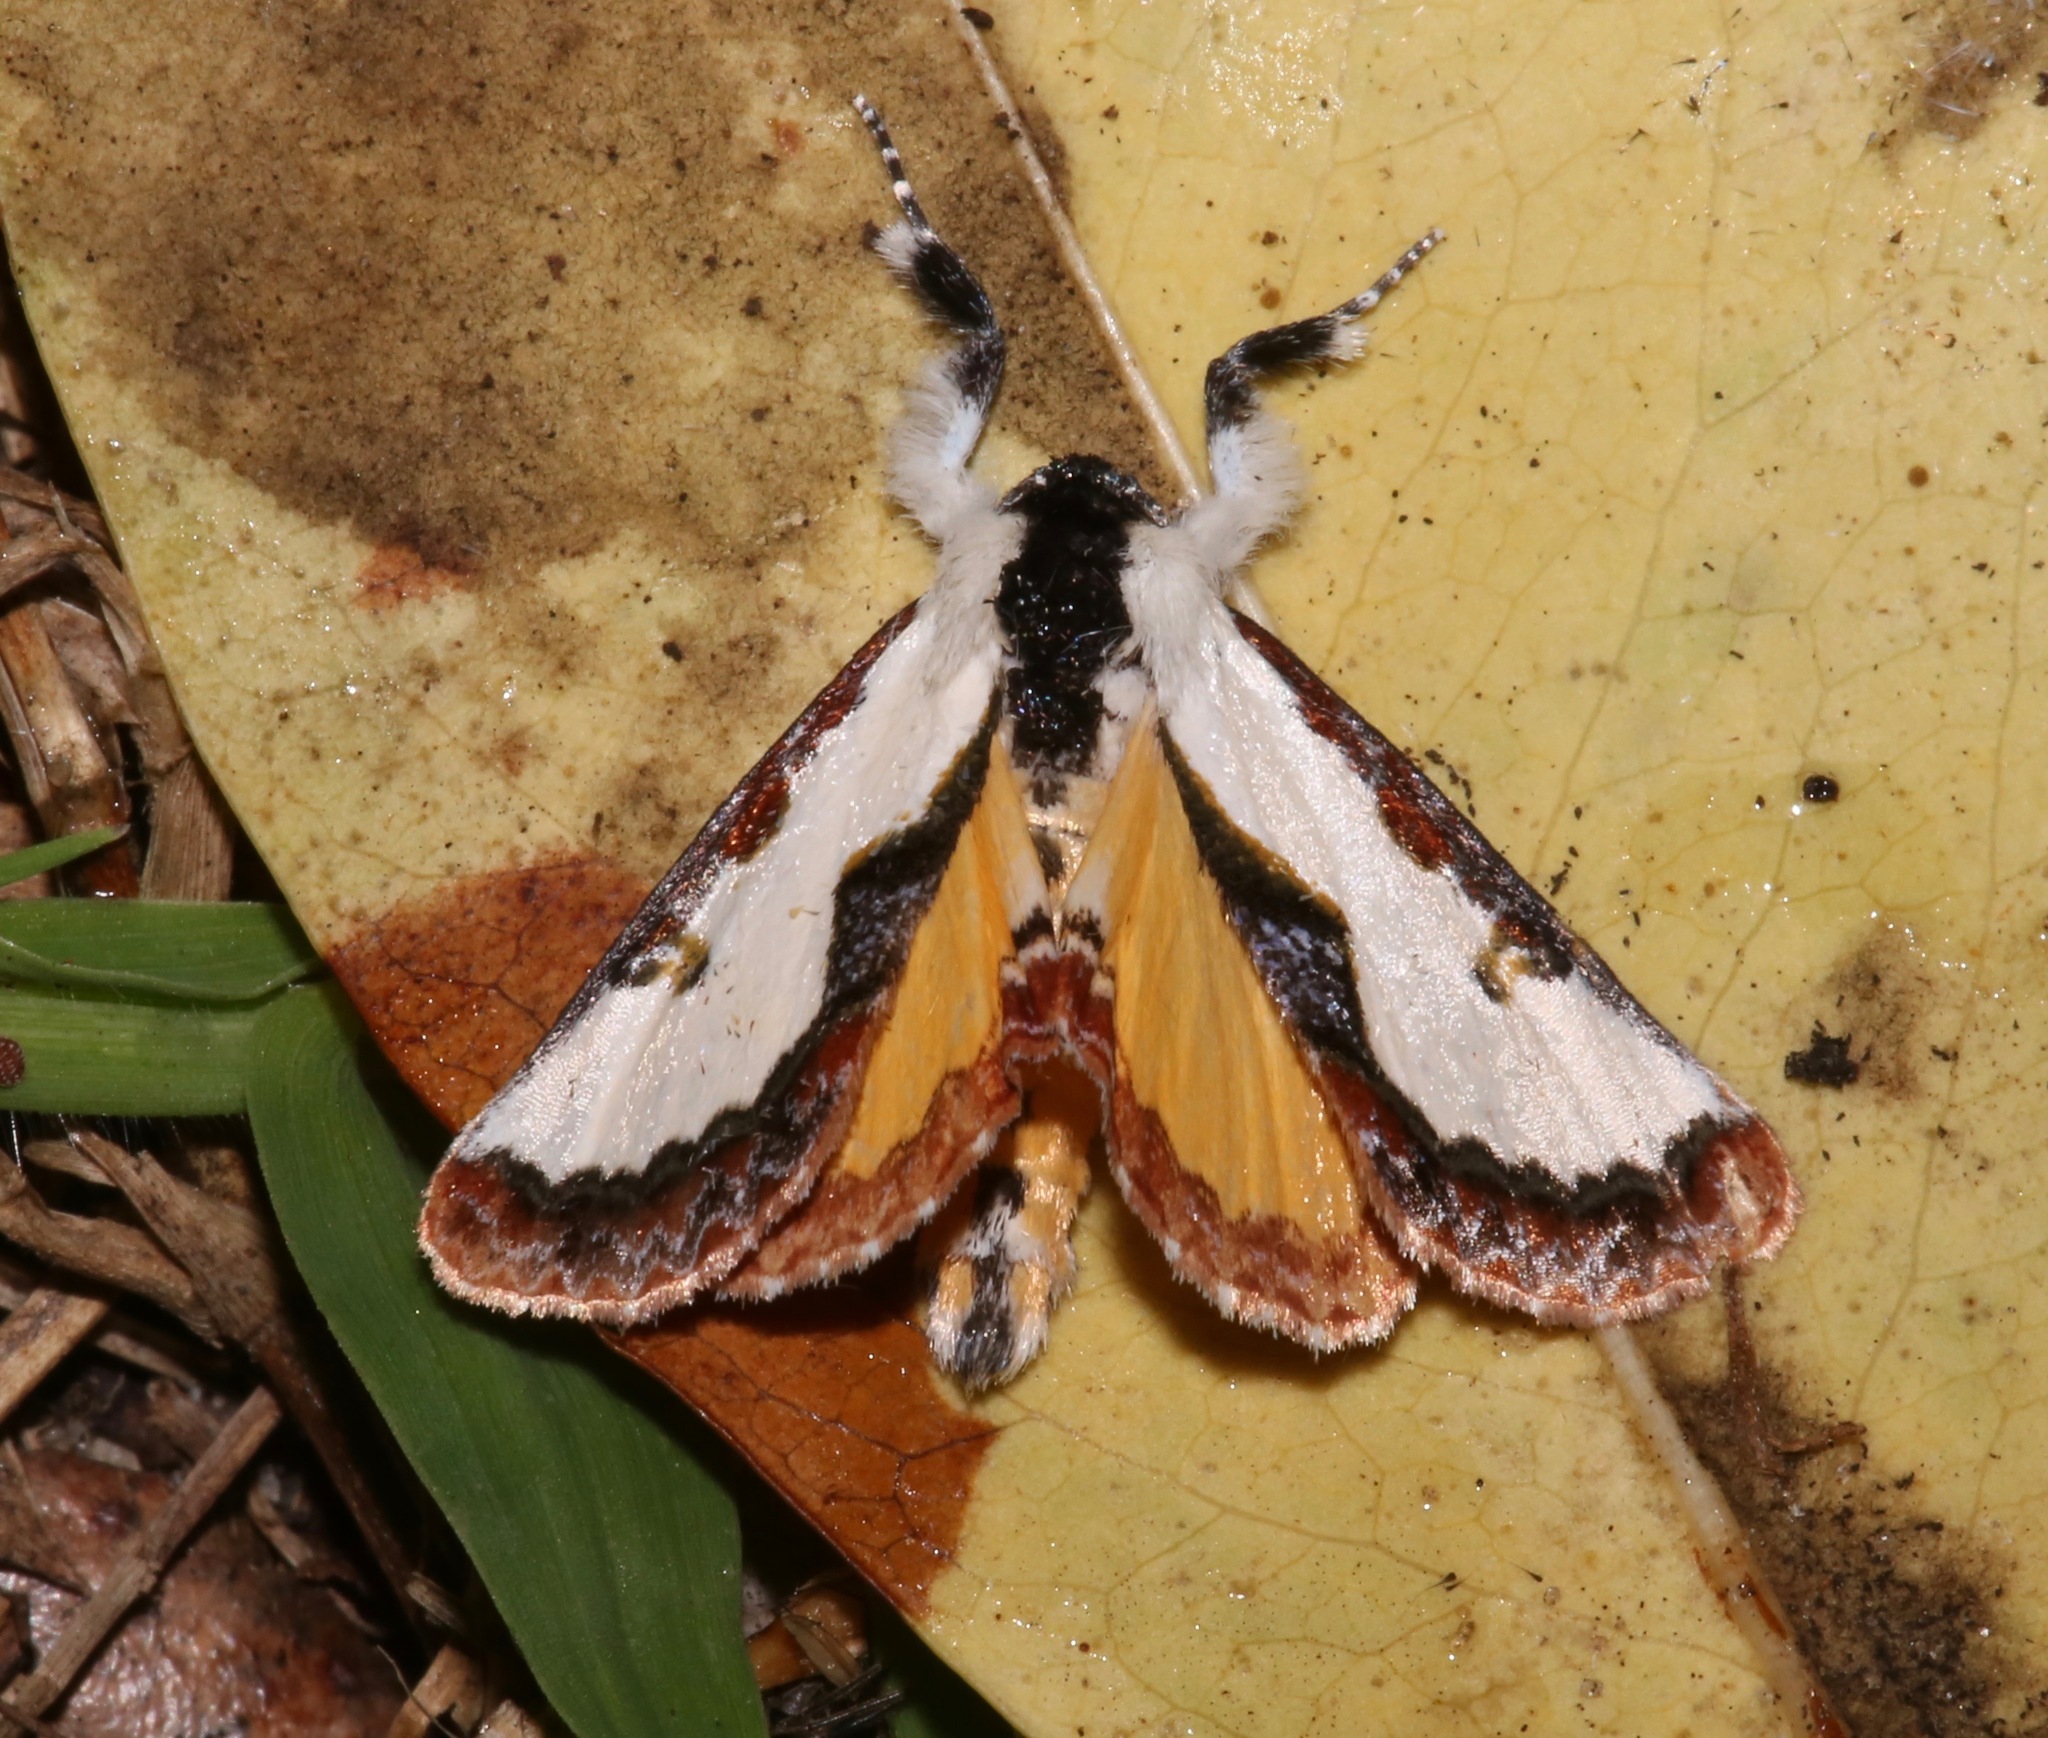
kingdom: Animalia
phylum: Arthropoda
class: Insecta
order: Lepidoptera
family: Noctuidae
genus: Eudryas
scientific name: Eudryas unio
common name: Pearly wood-nymph
